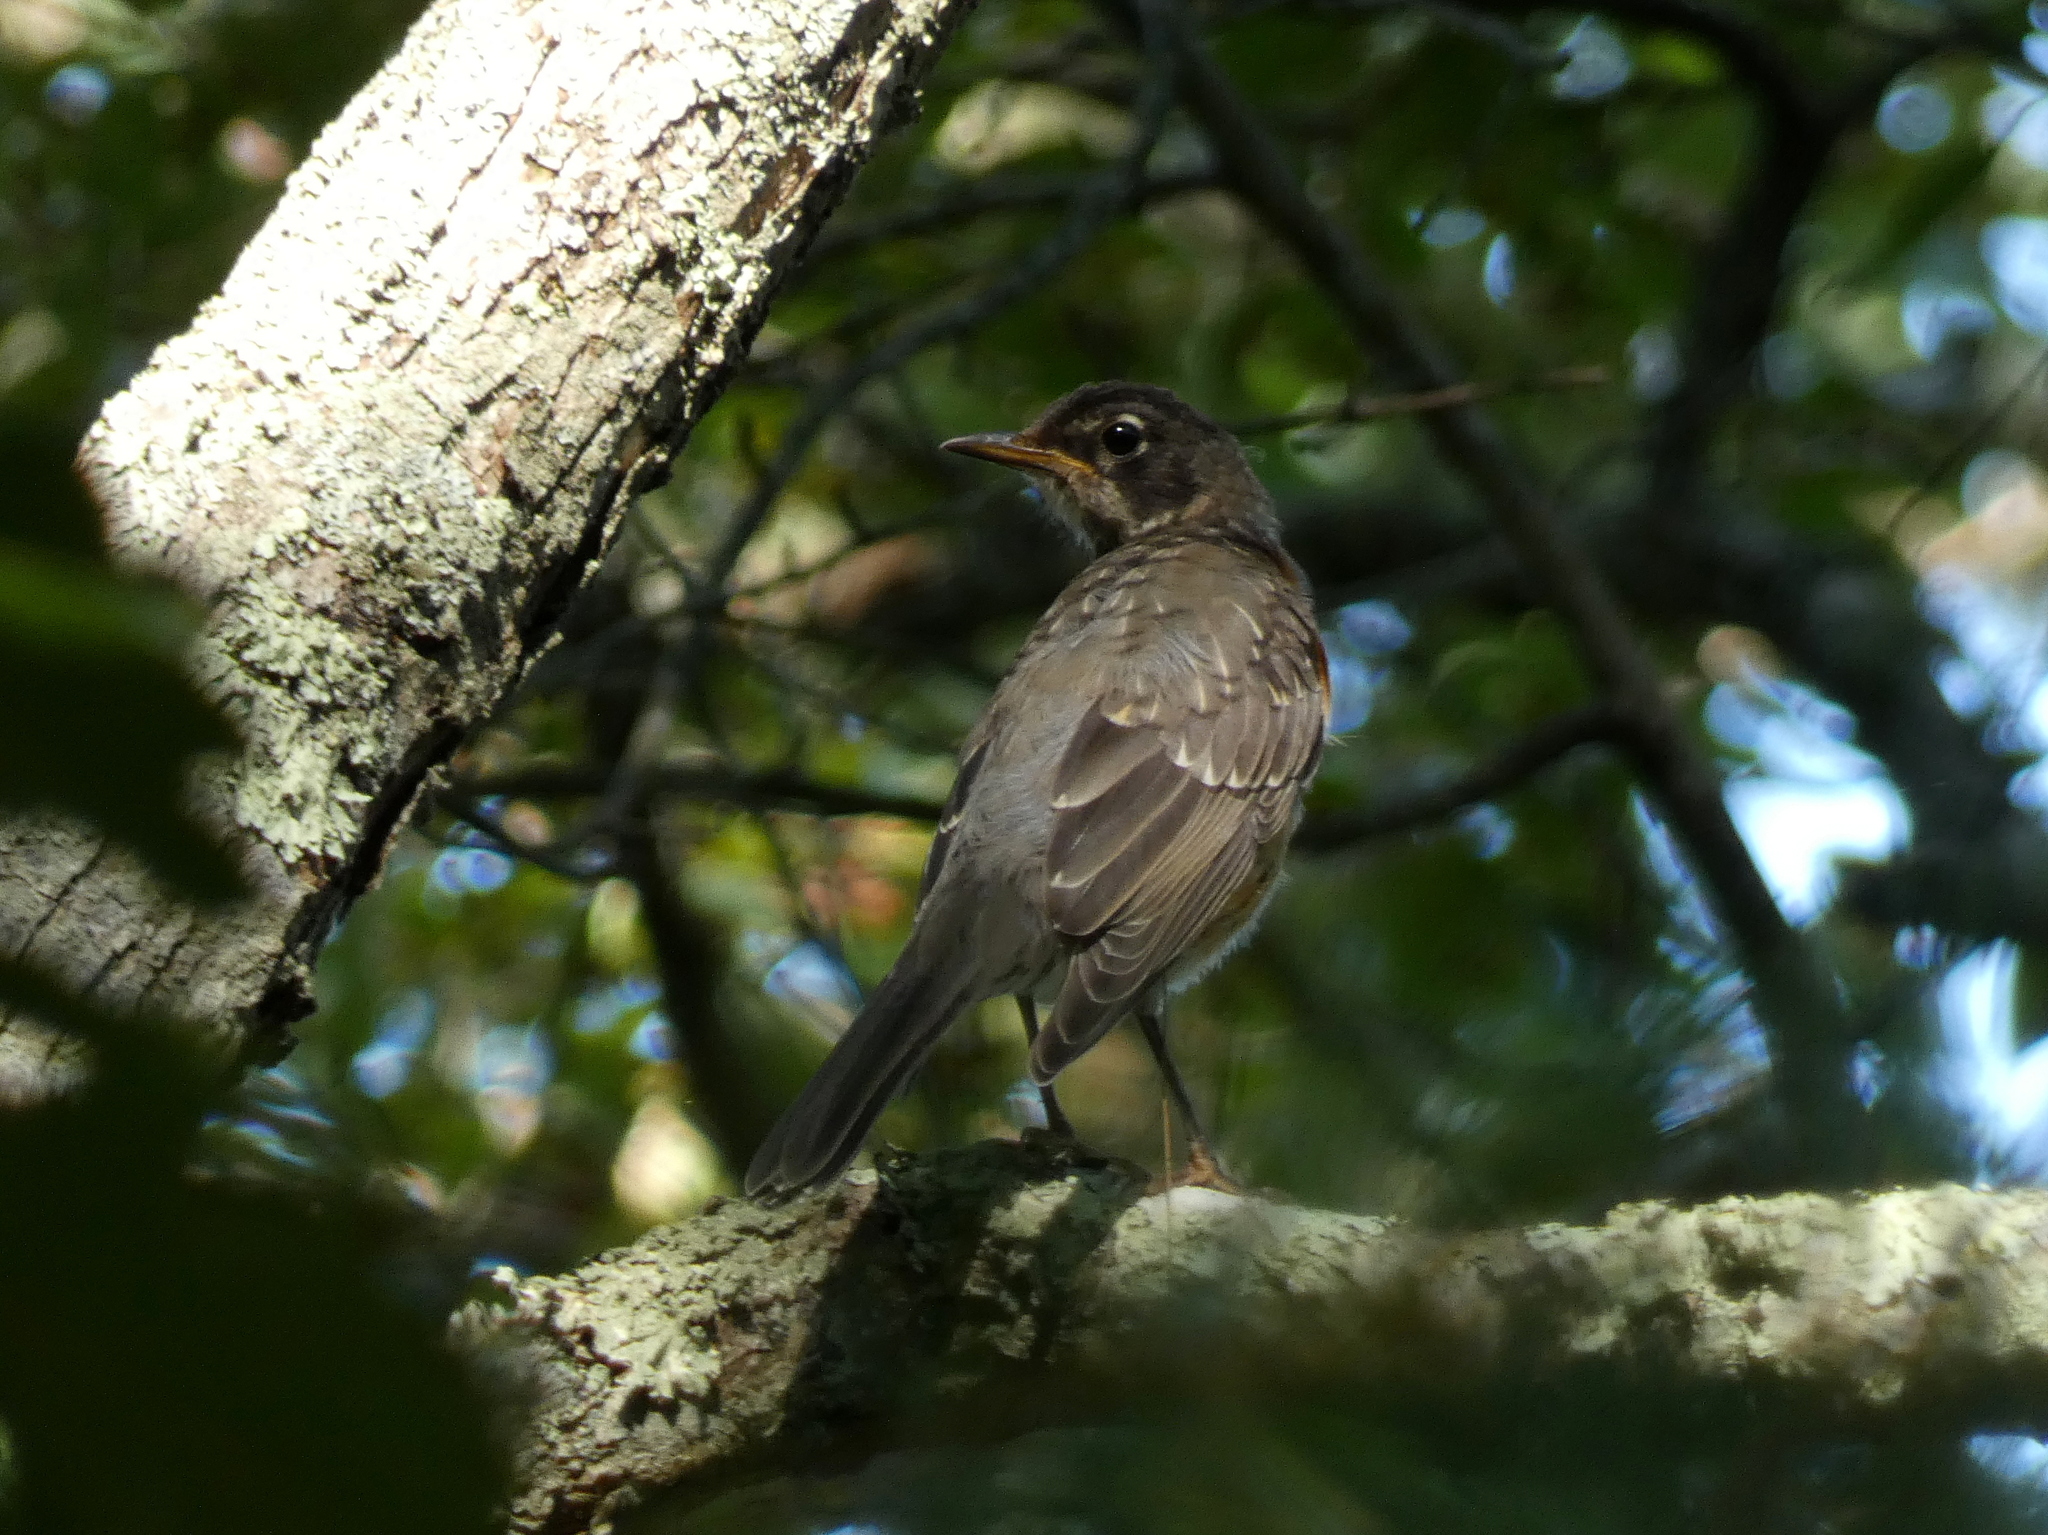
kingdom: Animalia
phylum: Chordata
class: Aves
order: Passeriformes
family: Turdidae
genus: Turdus
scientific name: Turdus migratorius
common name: American robin
